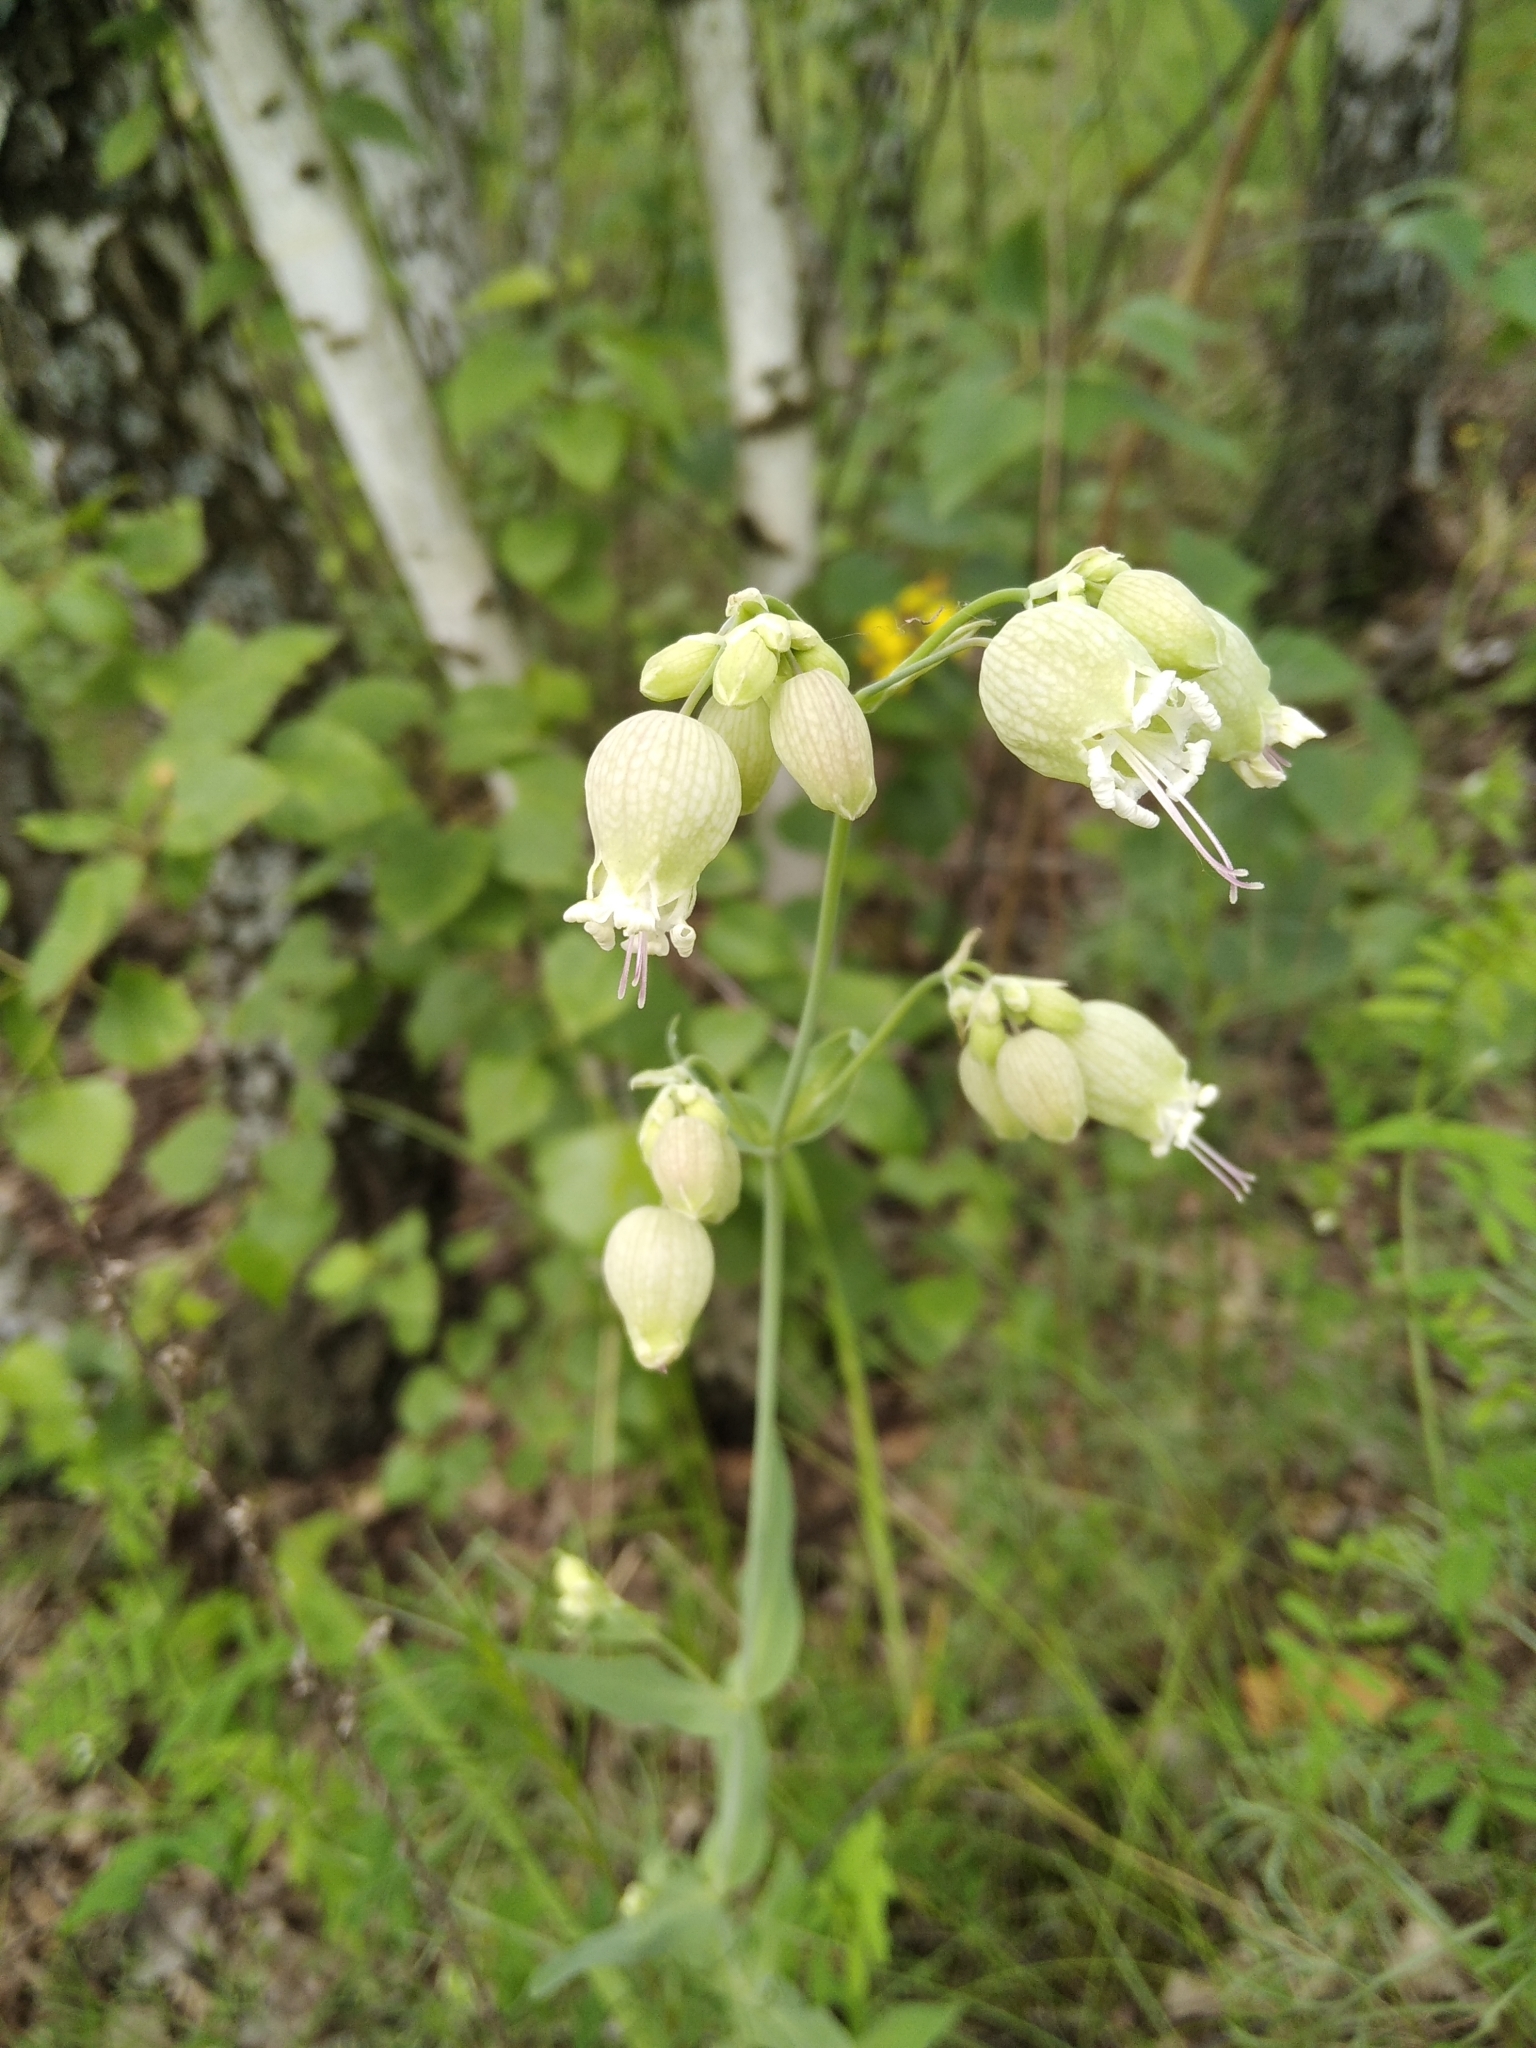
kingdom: Plantae
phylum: Tracheophyta
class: Magnoliopsida
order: Caryophyllales
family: Caryophyllaceae
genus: Silene
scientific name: Silene vulgaris
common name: Bladder campion
